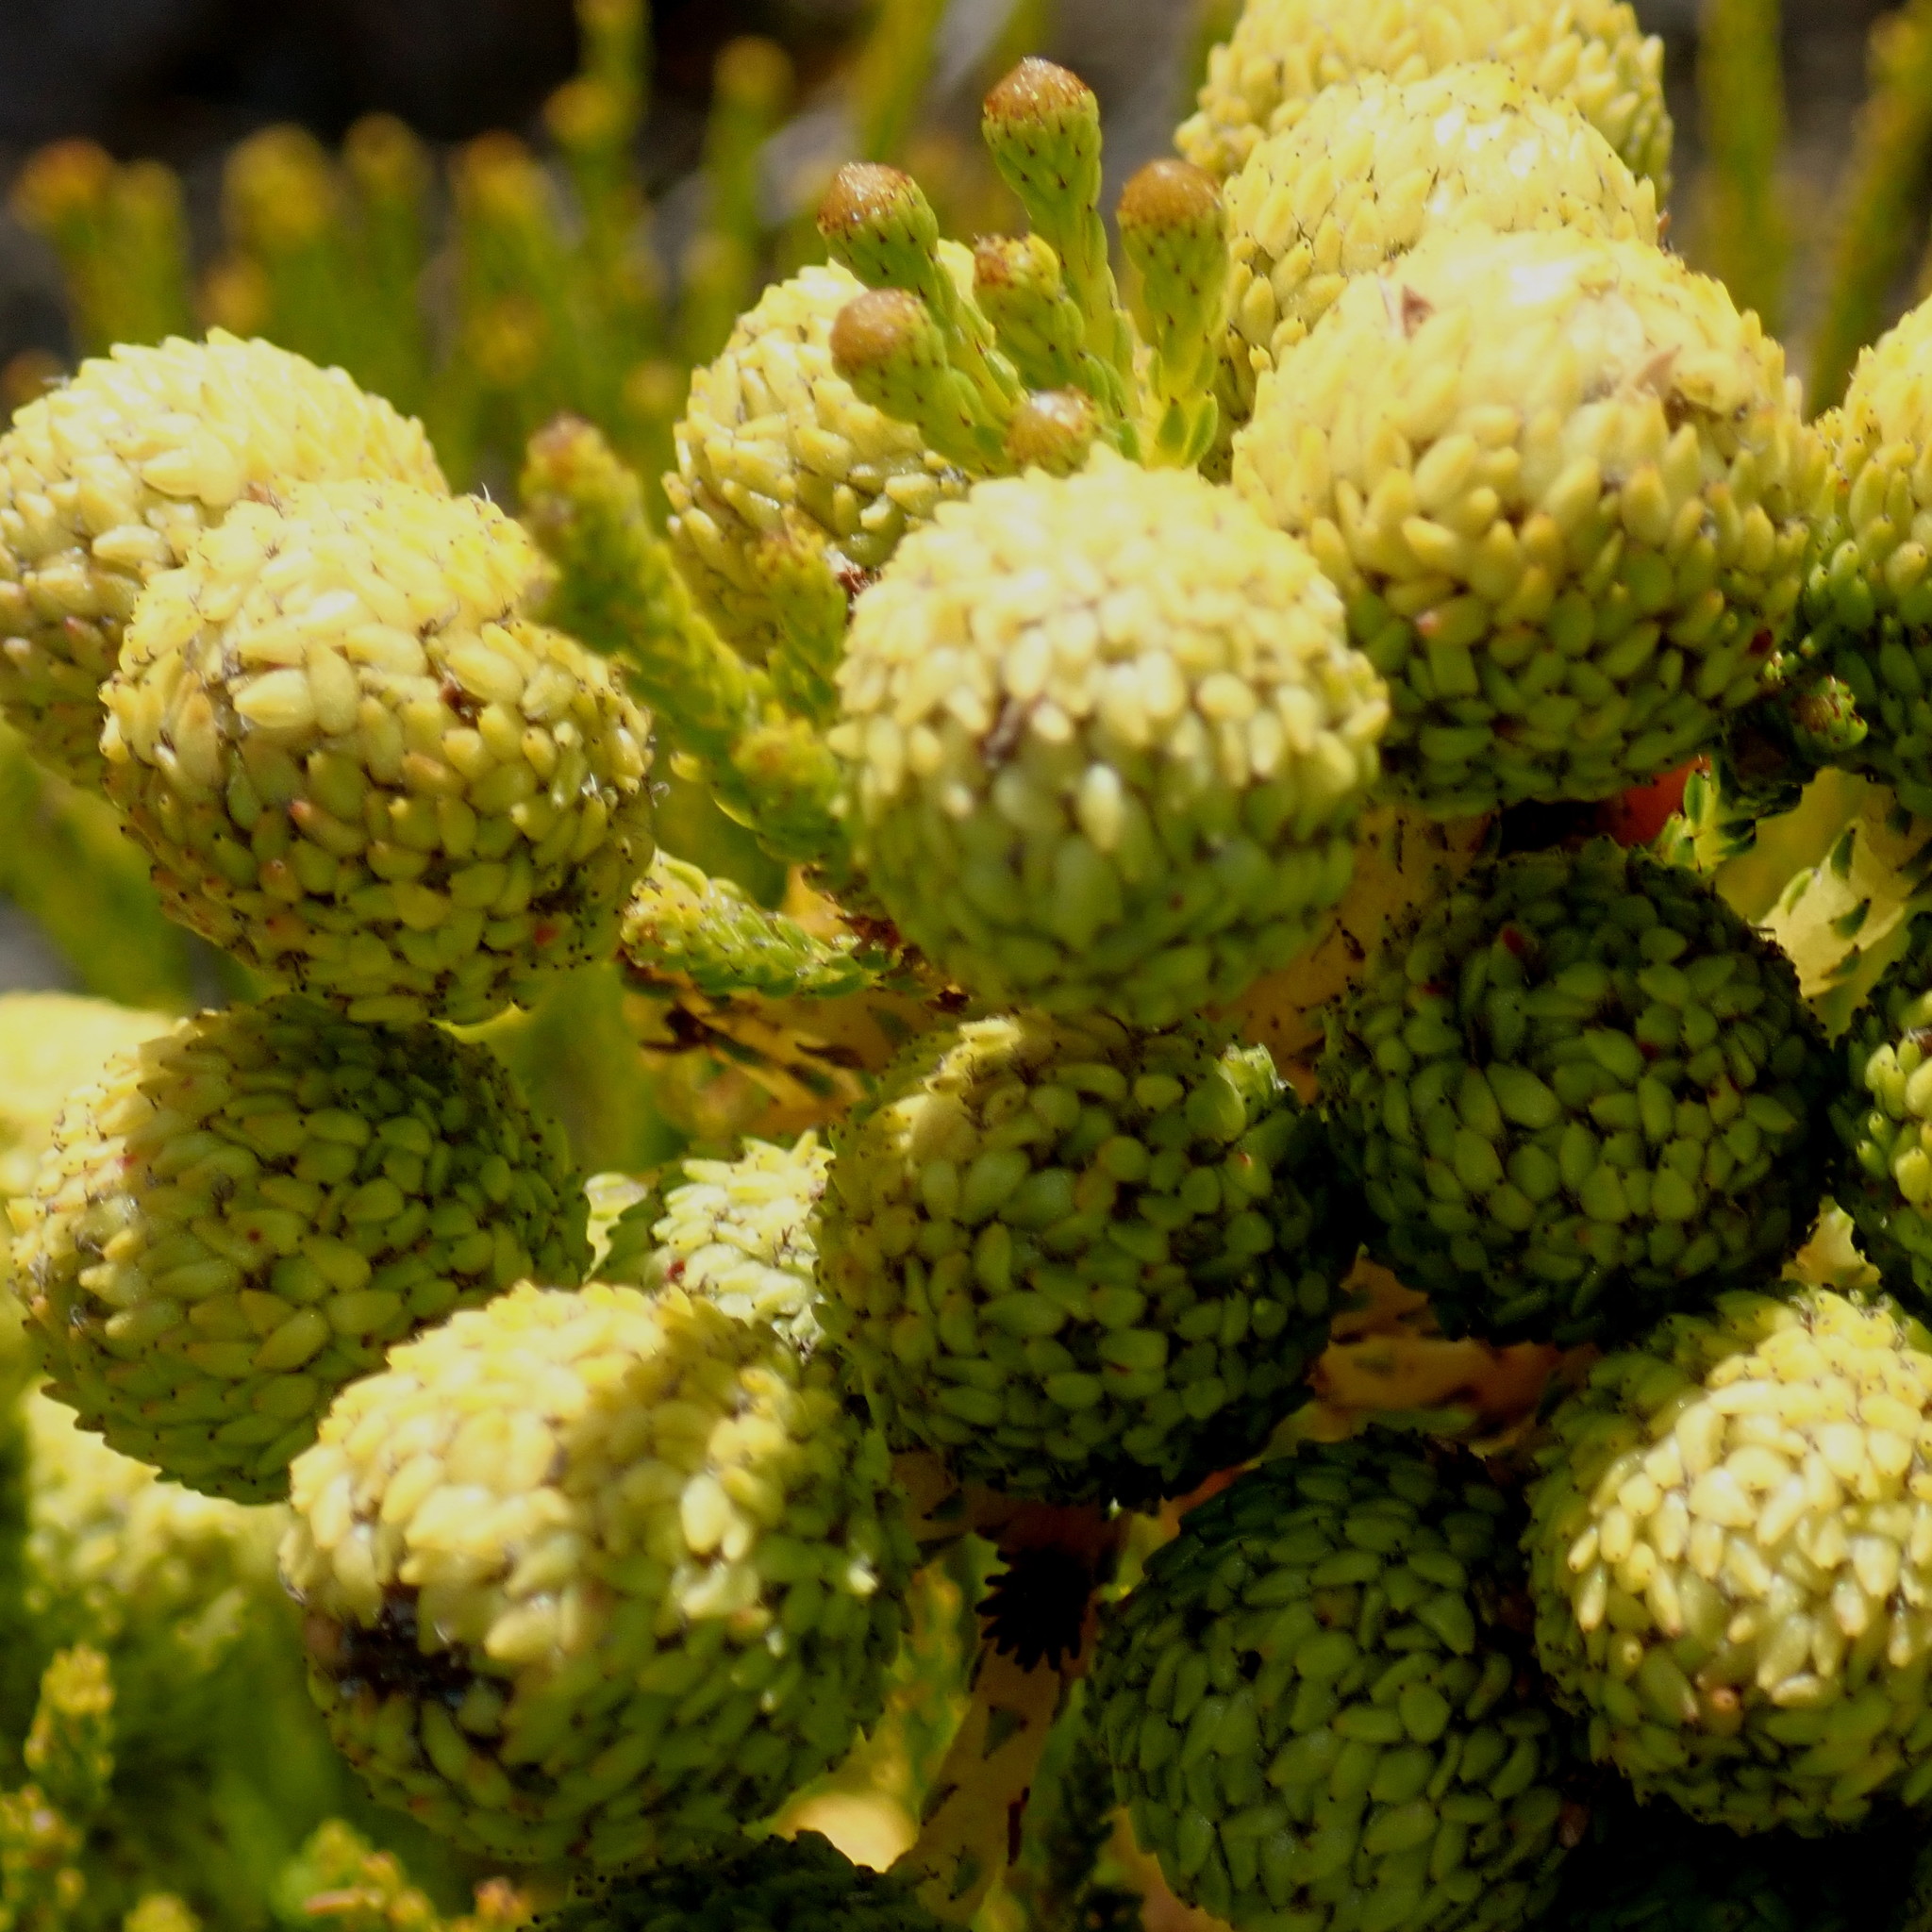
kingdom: Plantae
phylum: Tracheophyta
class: Magnoliopsida
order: Bruniales
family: Bruniaceae
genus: Berzelia
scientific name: Berzelia intermedia
